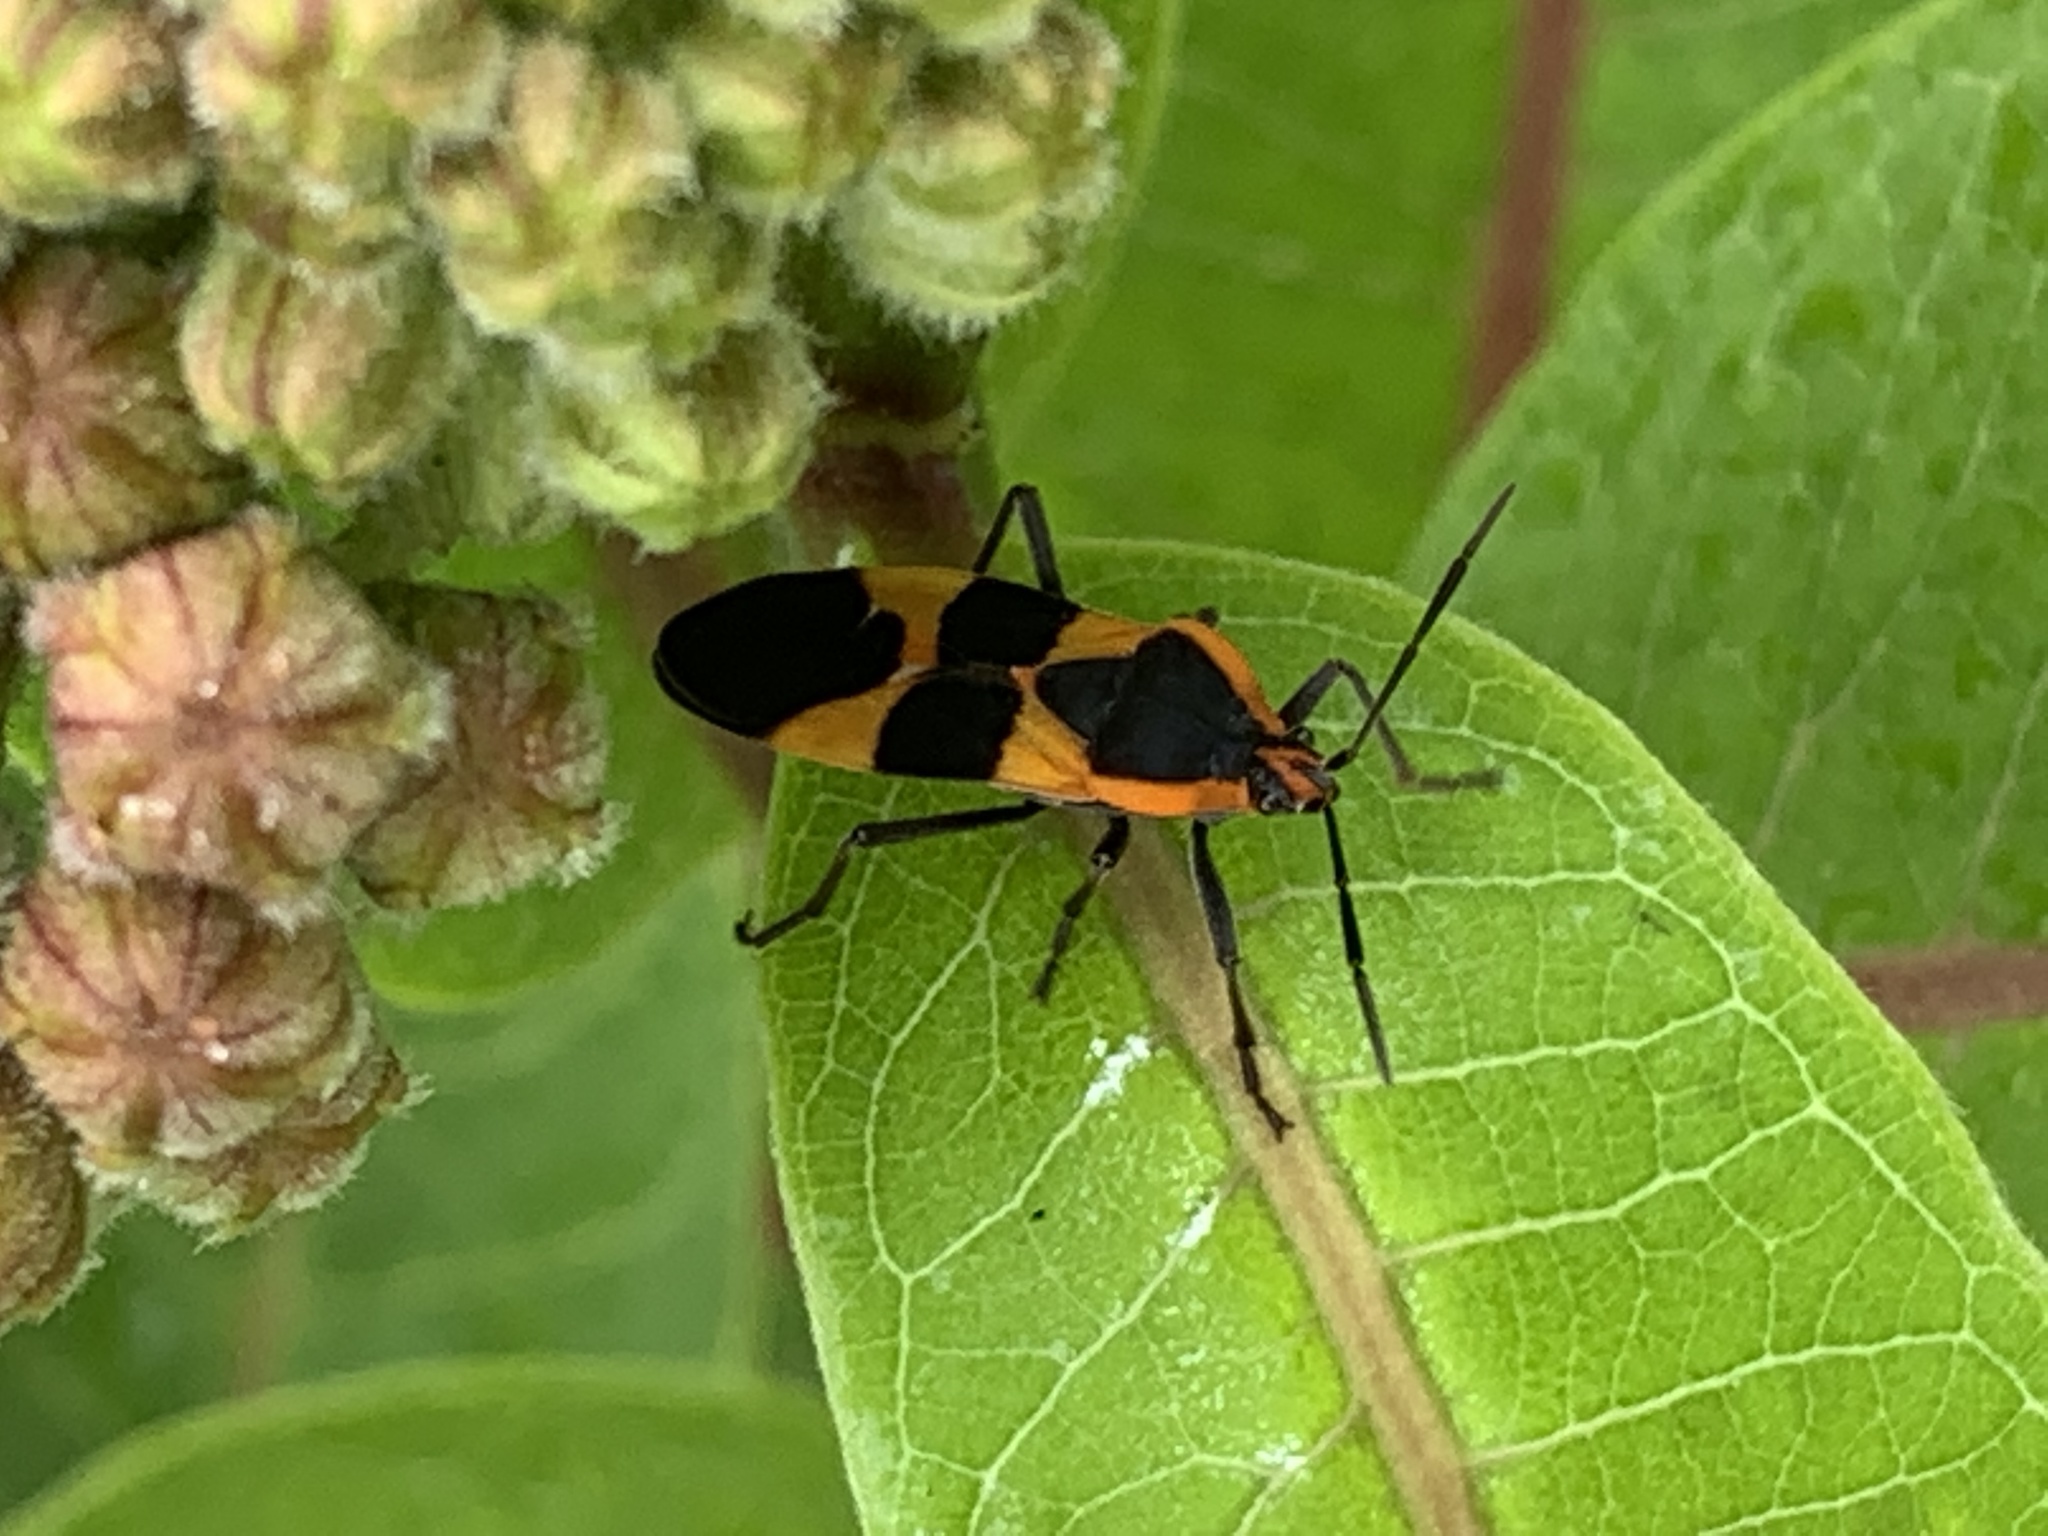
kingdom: Animalia
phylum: Arthropoda
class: Insecta
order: Hemiptera
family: Lygaeidae
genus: Oncopeltus
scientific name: Oncopeltus fasciatus
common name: Large milkweed bug
